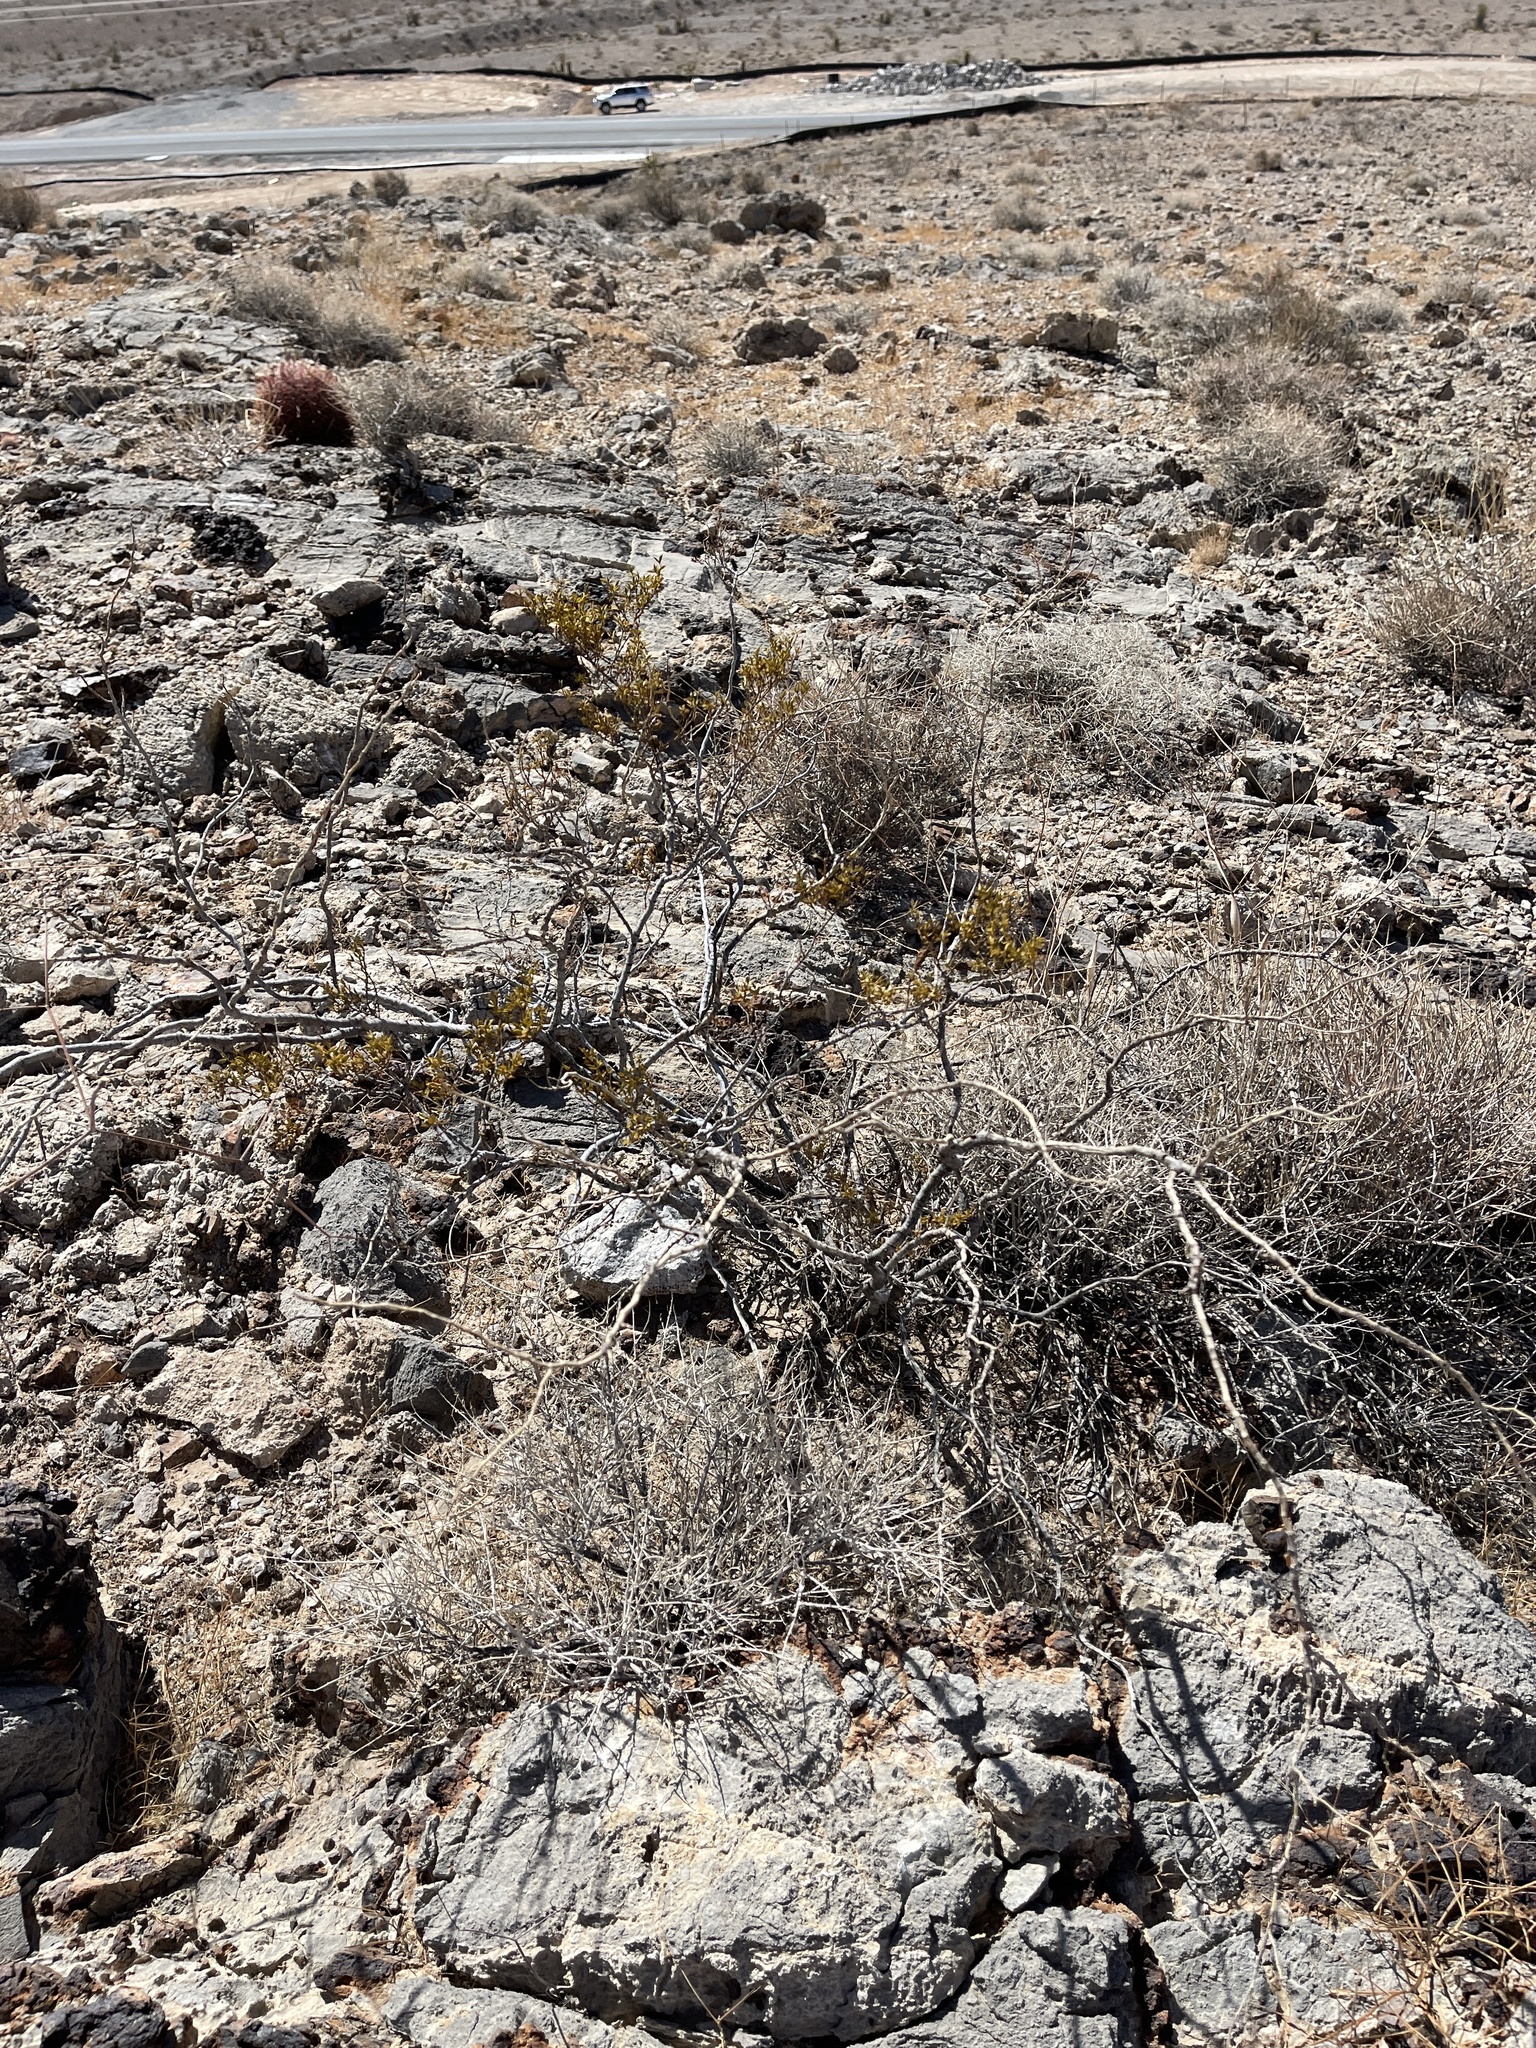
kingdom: Plantae
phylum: Tracheophyta
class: Magnoliopsida
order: Zygophyllales
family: Zygophyllaceae
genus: Larrea
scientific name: Larrea tridentata
